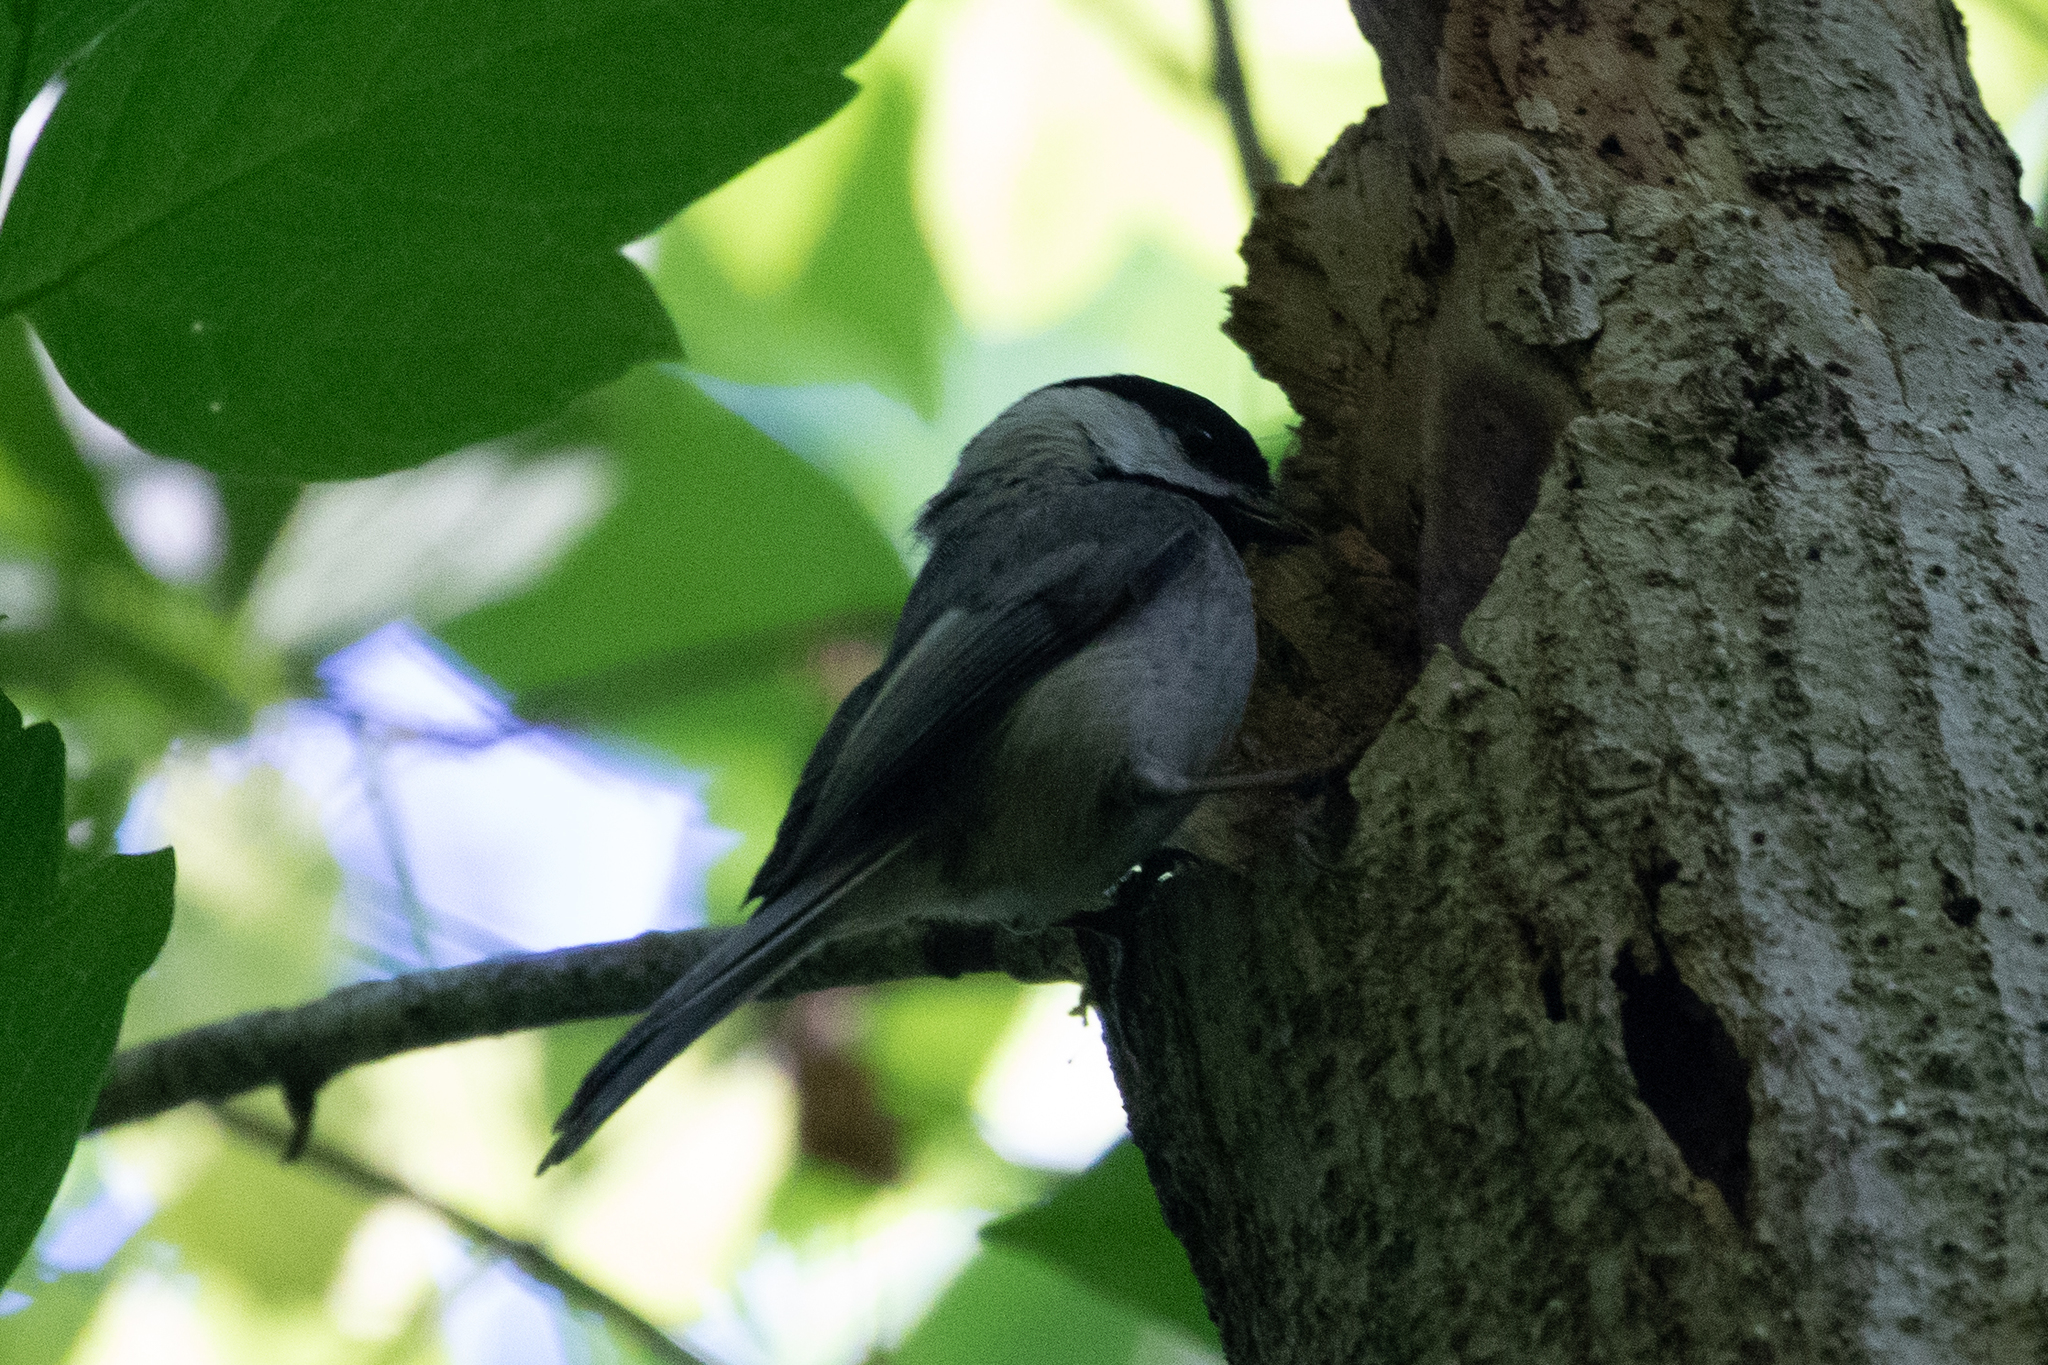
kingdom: Animalia
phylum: Chordata
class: Aves
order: Passeriformes
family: Paridae
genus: Poecile
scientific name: Poecile carolinensis
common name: Carolina chickadee
